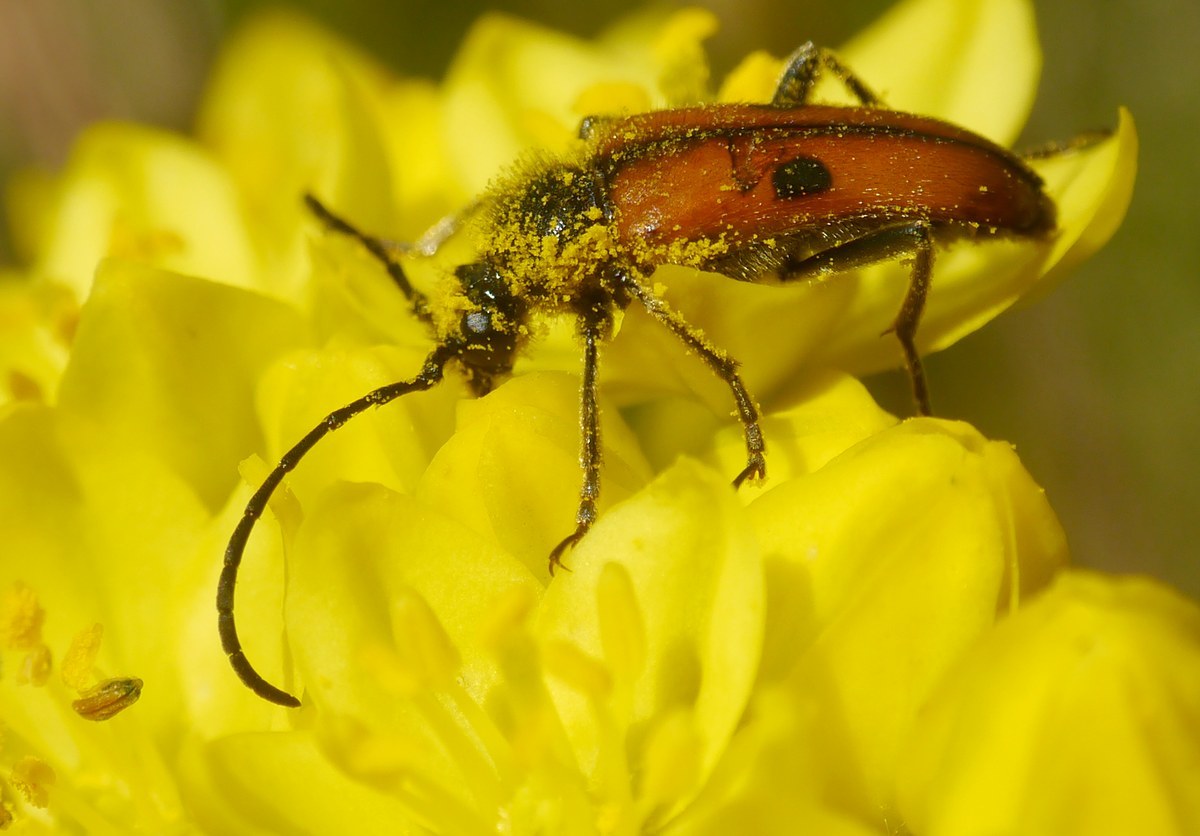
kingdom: Animalia
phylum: Arthropoda
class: Insecta
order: Coleoptera
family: Cerambycidae
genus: Vadonia
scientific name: Vadonia unipunctata
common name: Long-horned beetle
